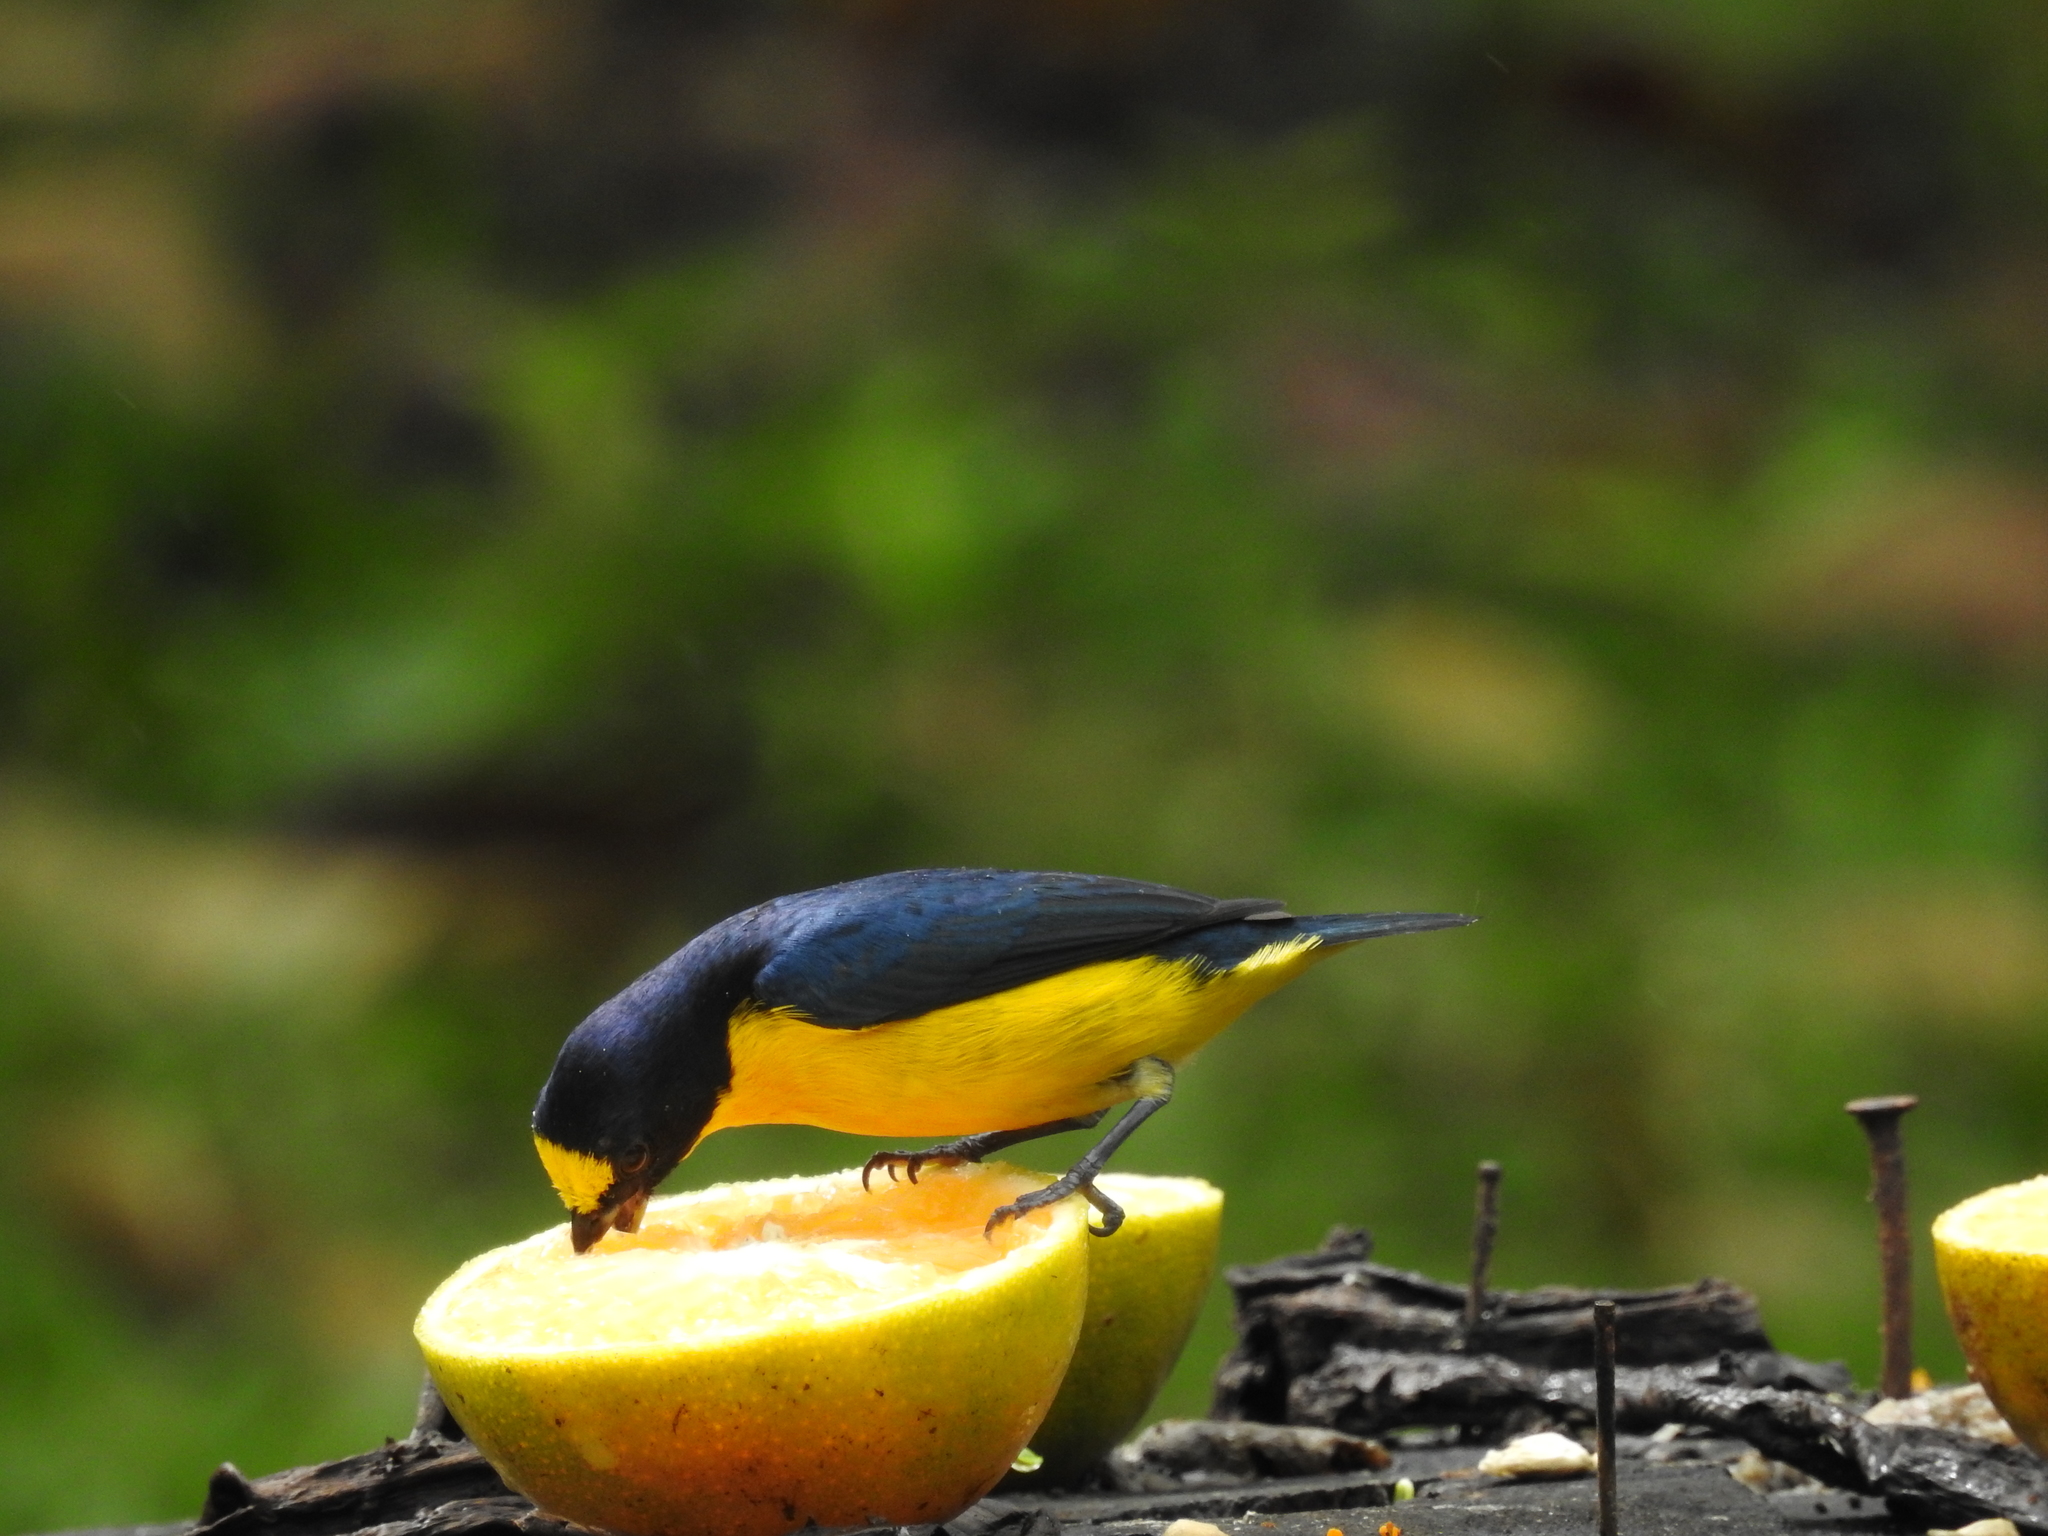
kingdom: Animalia
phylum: Chordata
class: Aves
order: Passeriformes
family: Fringillidae
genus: Euphonia
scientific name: Euphonia hirundinacea
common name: Yellow-throated euphonia
